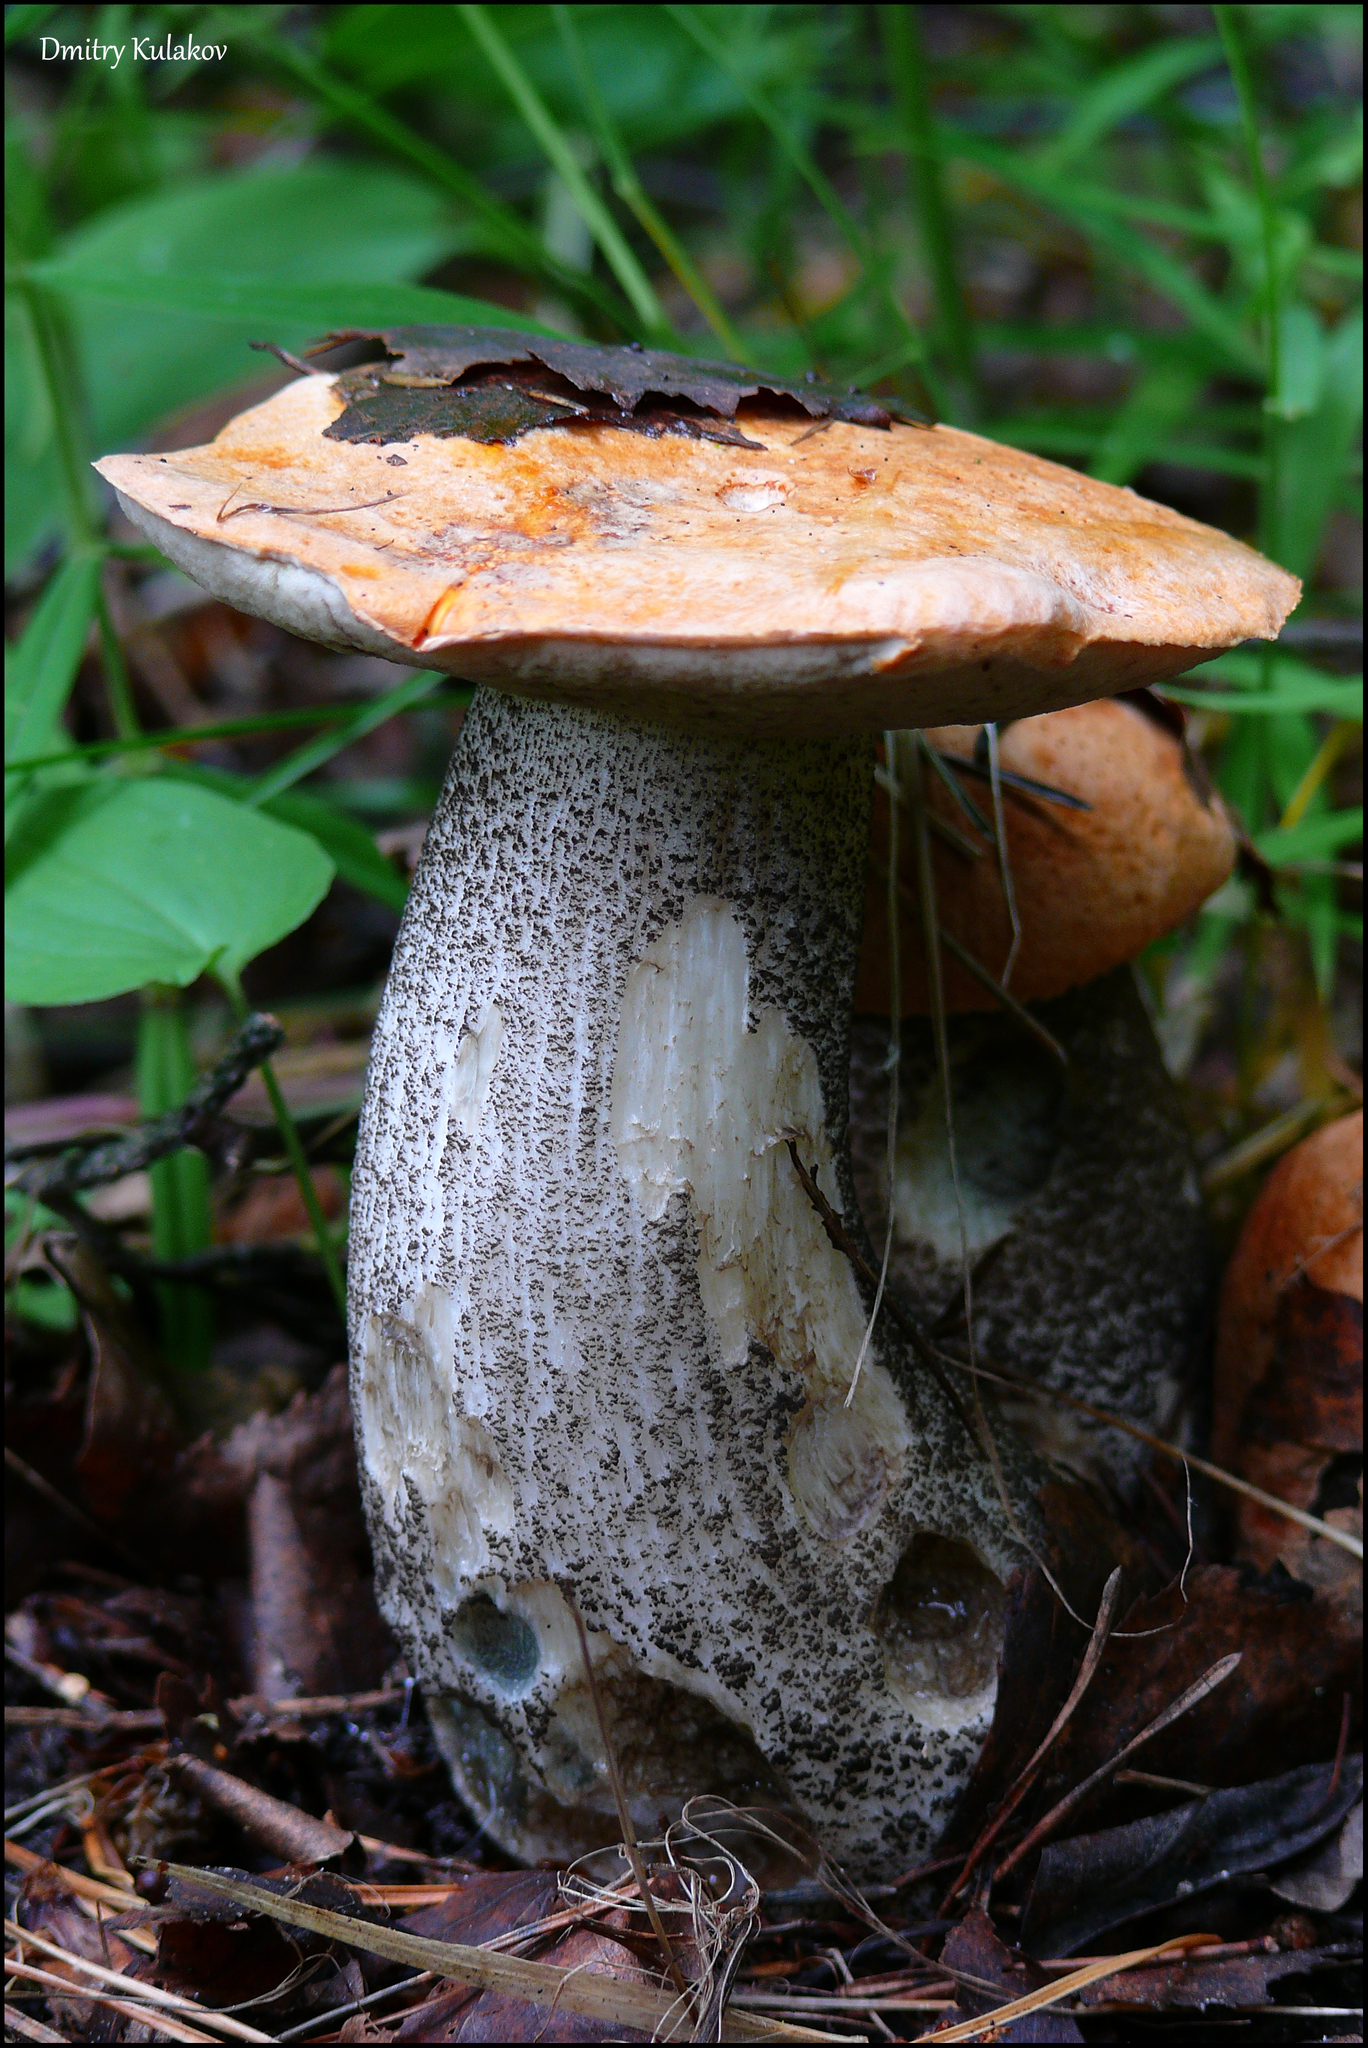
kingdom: Fungi
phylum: Basidiomycota
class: Agaricomycetes
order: Boletales
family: Boletaceae
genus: Leccinum
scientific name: Leccinum versipelle
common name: Orange birch bolete
